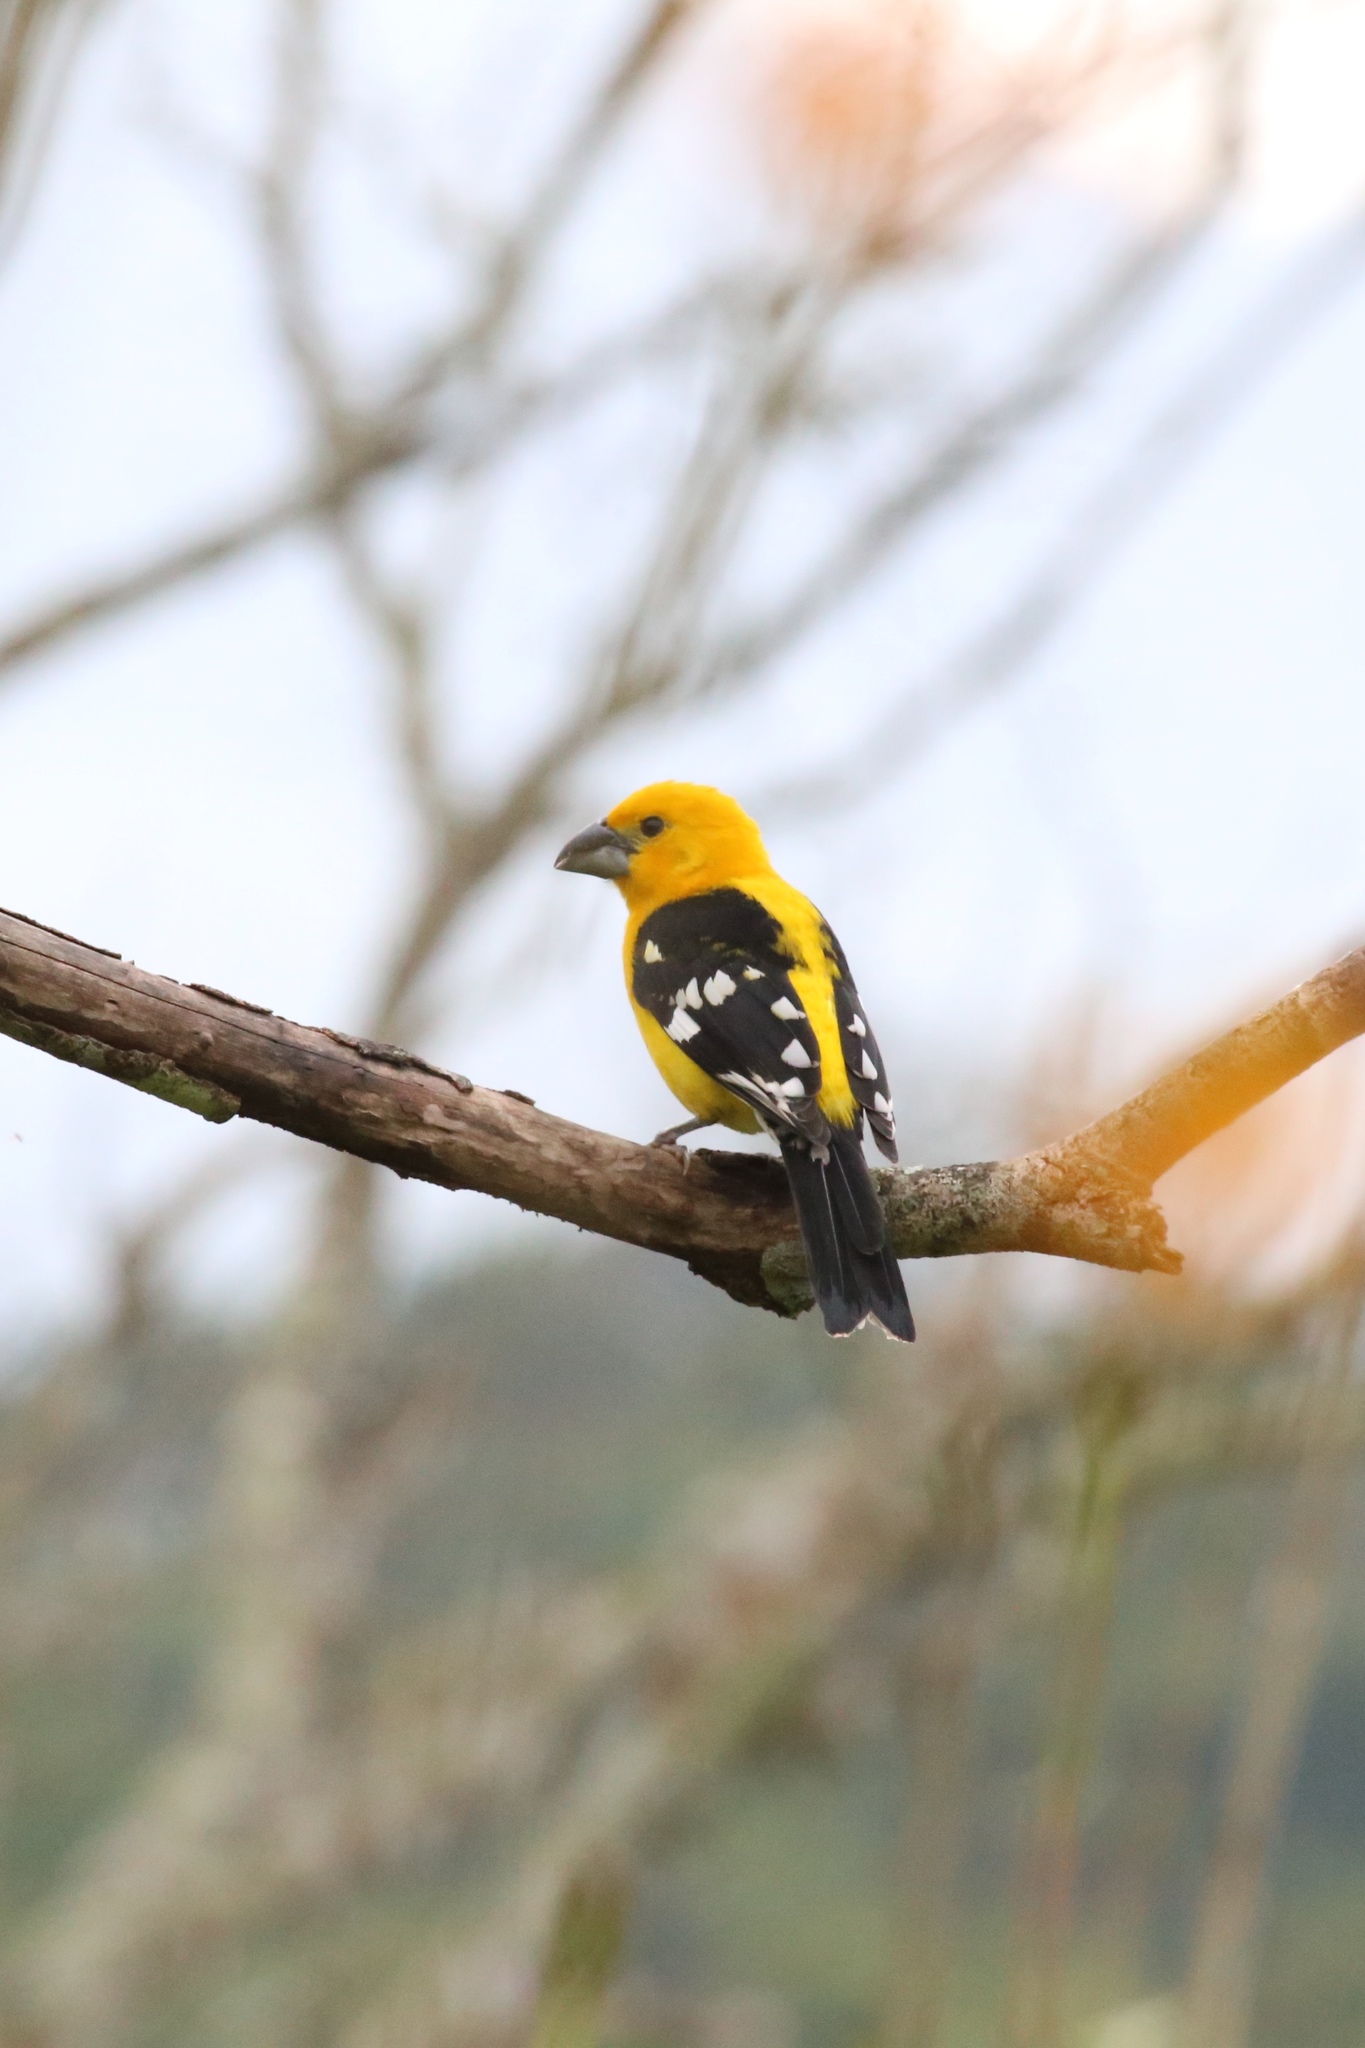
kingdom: Animalia
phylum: Chordata
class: Aves
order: Passeriformes
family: Cardinalidae
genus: Pheucticus
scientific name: Pheucticus chrysopeplus
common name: Yellow grosbeak
